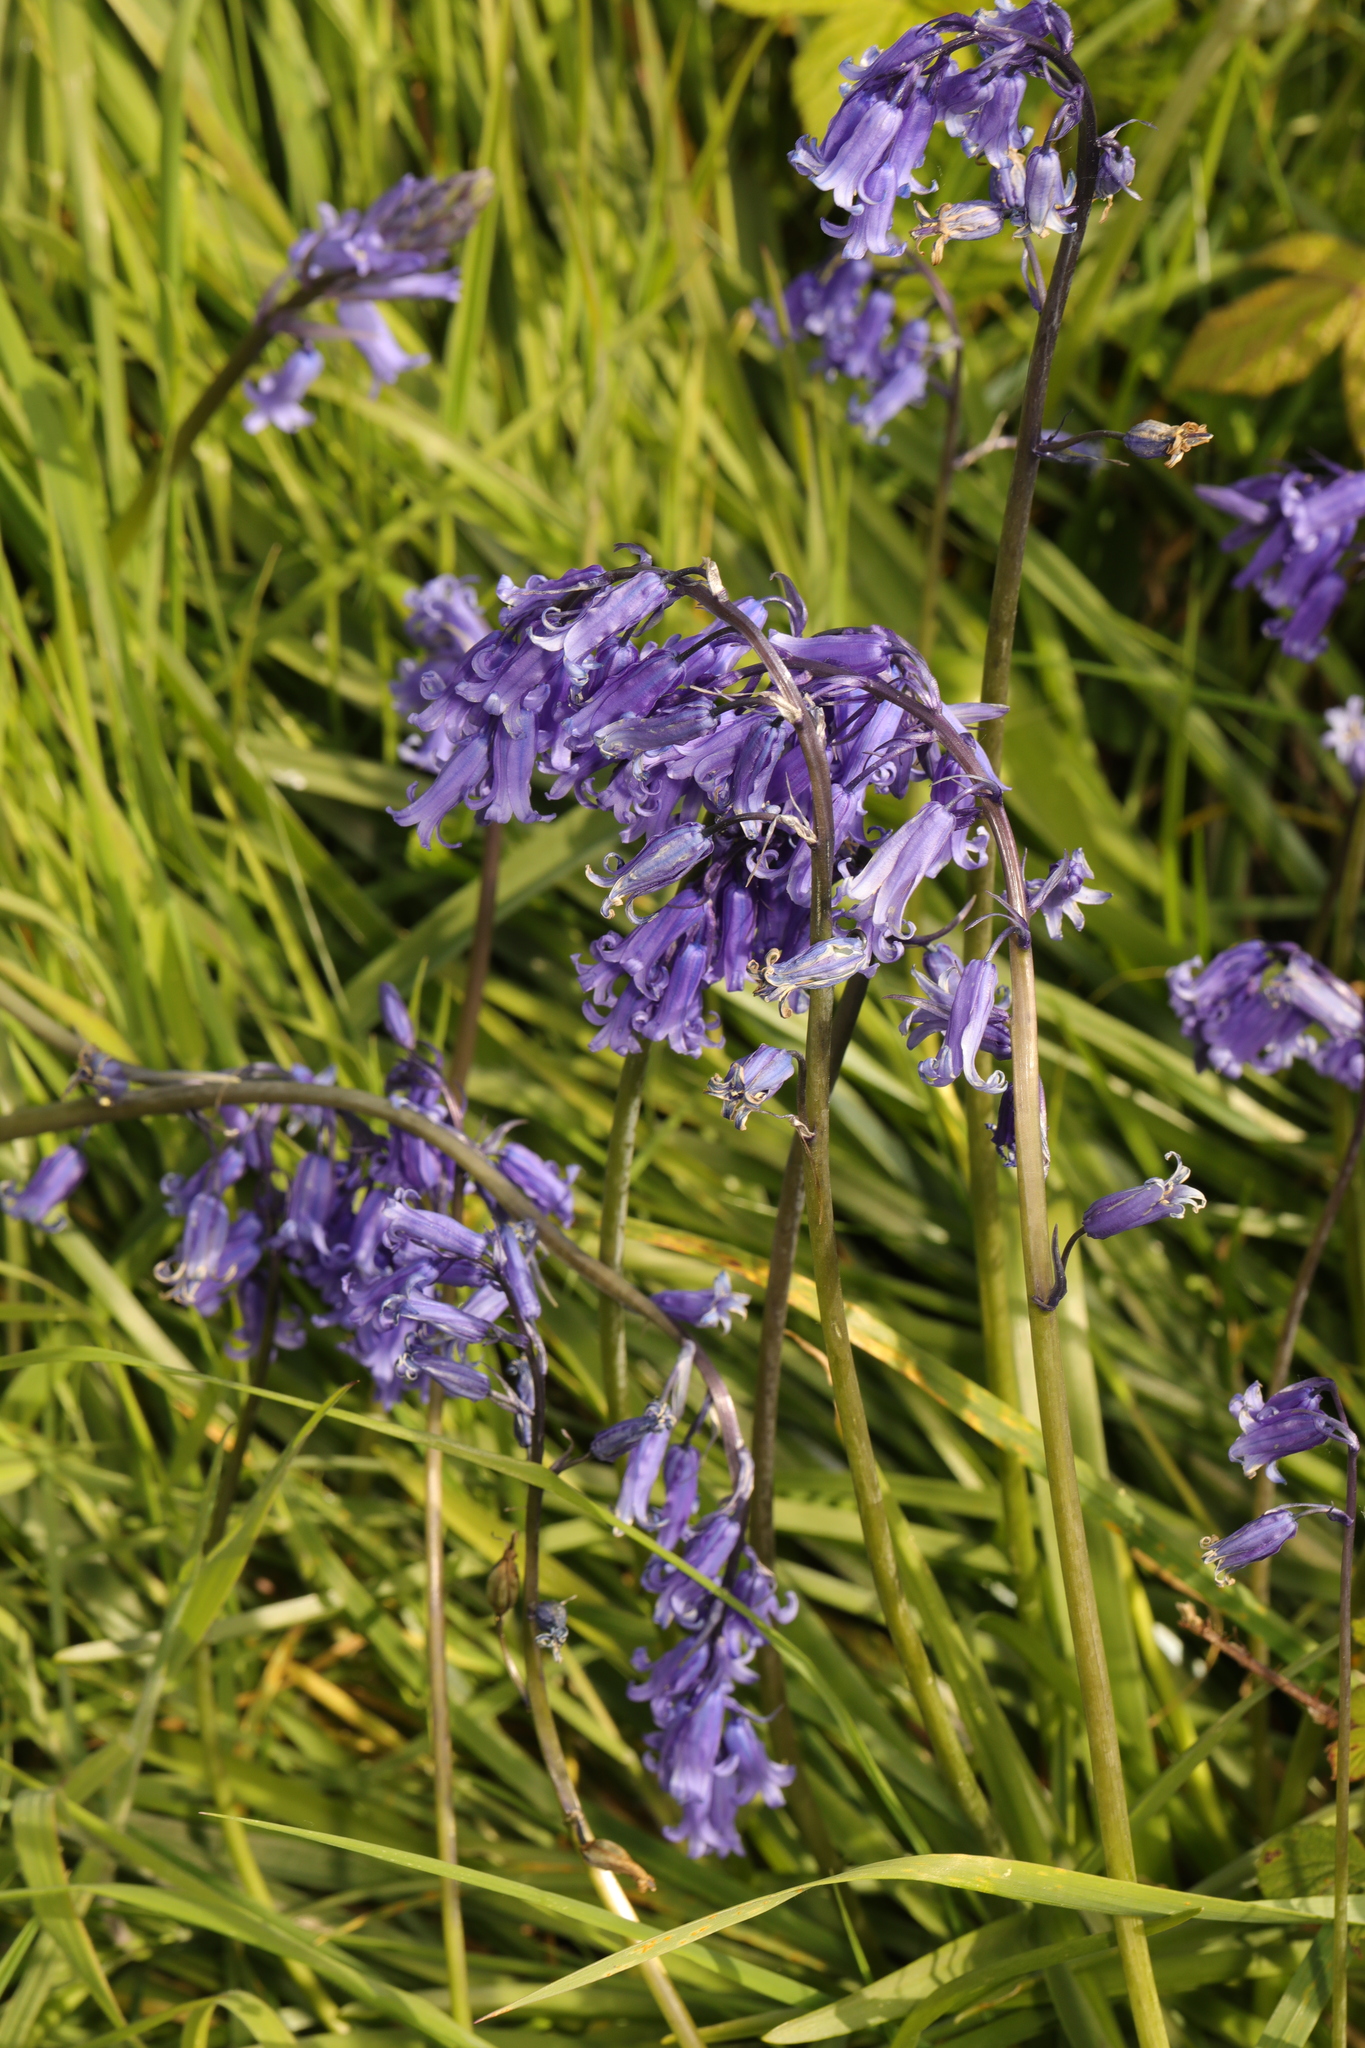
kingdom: Plantae
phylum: Tracheophyta
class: Liliopsida
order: Asparagales
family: Asparagaceae
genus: Hyacinthoides
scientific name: Hyacinthoides non-scripta
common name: Bluebell
